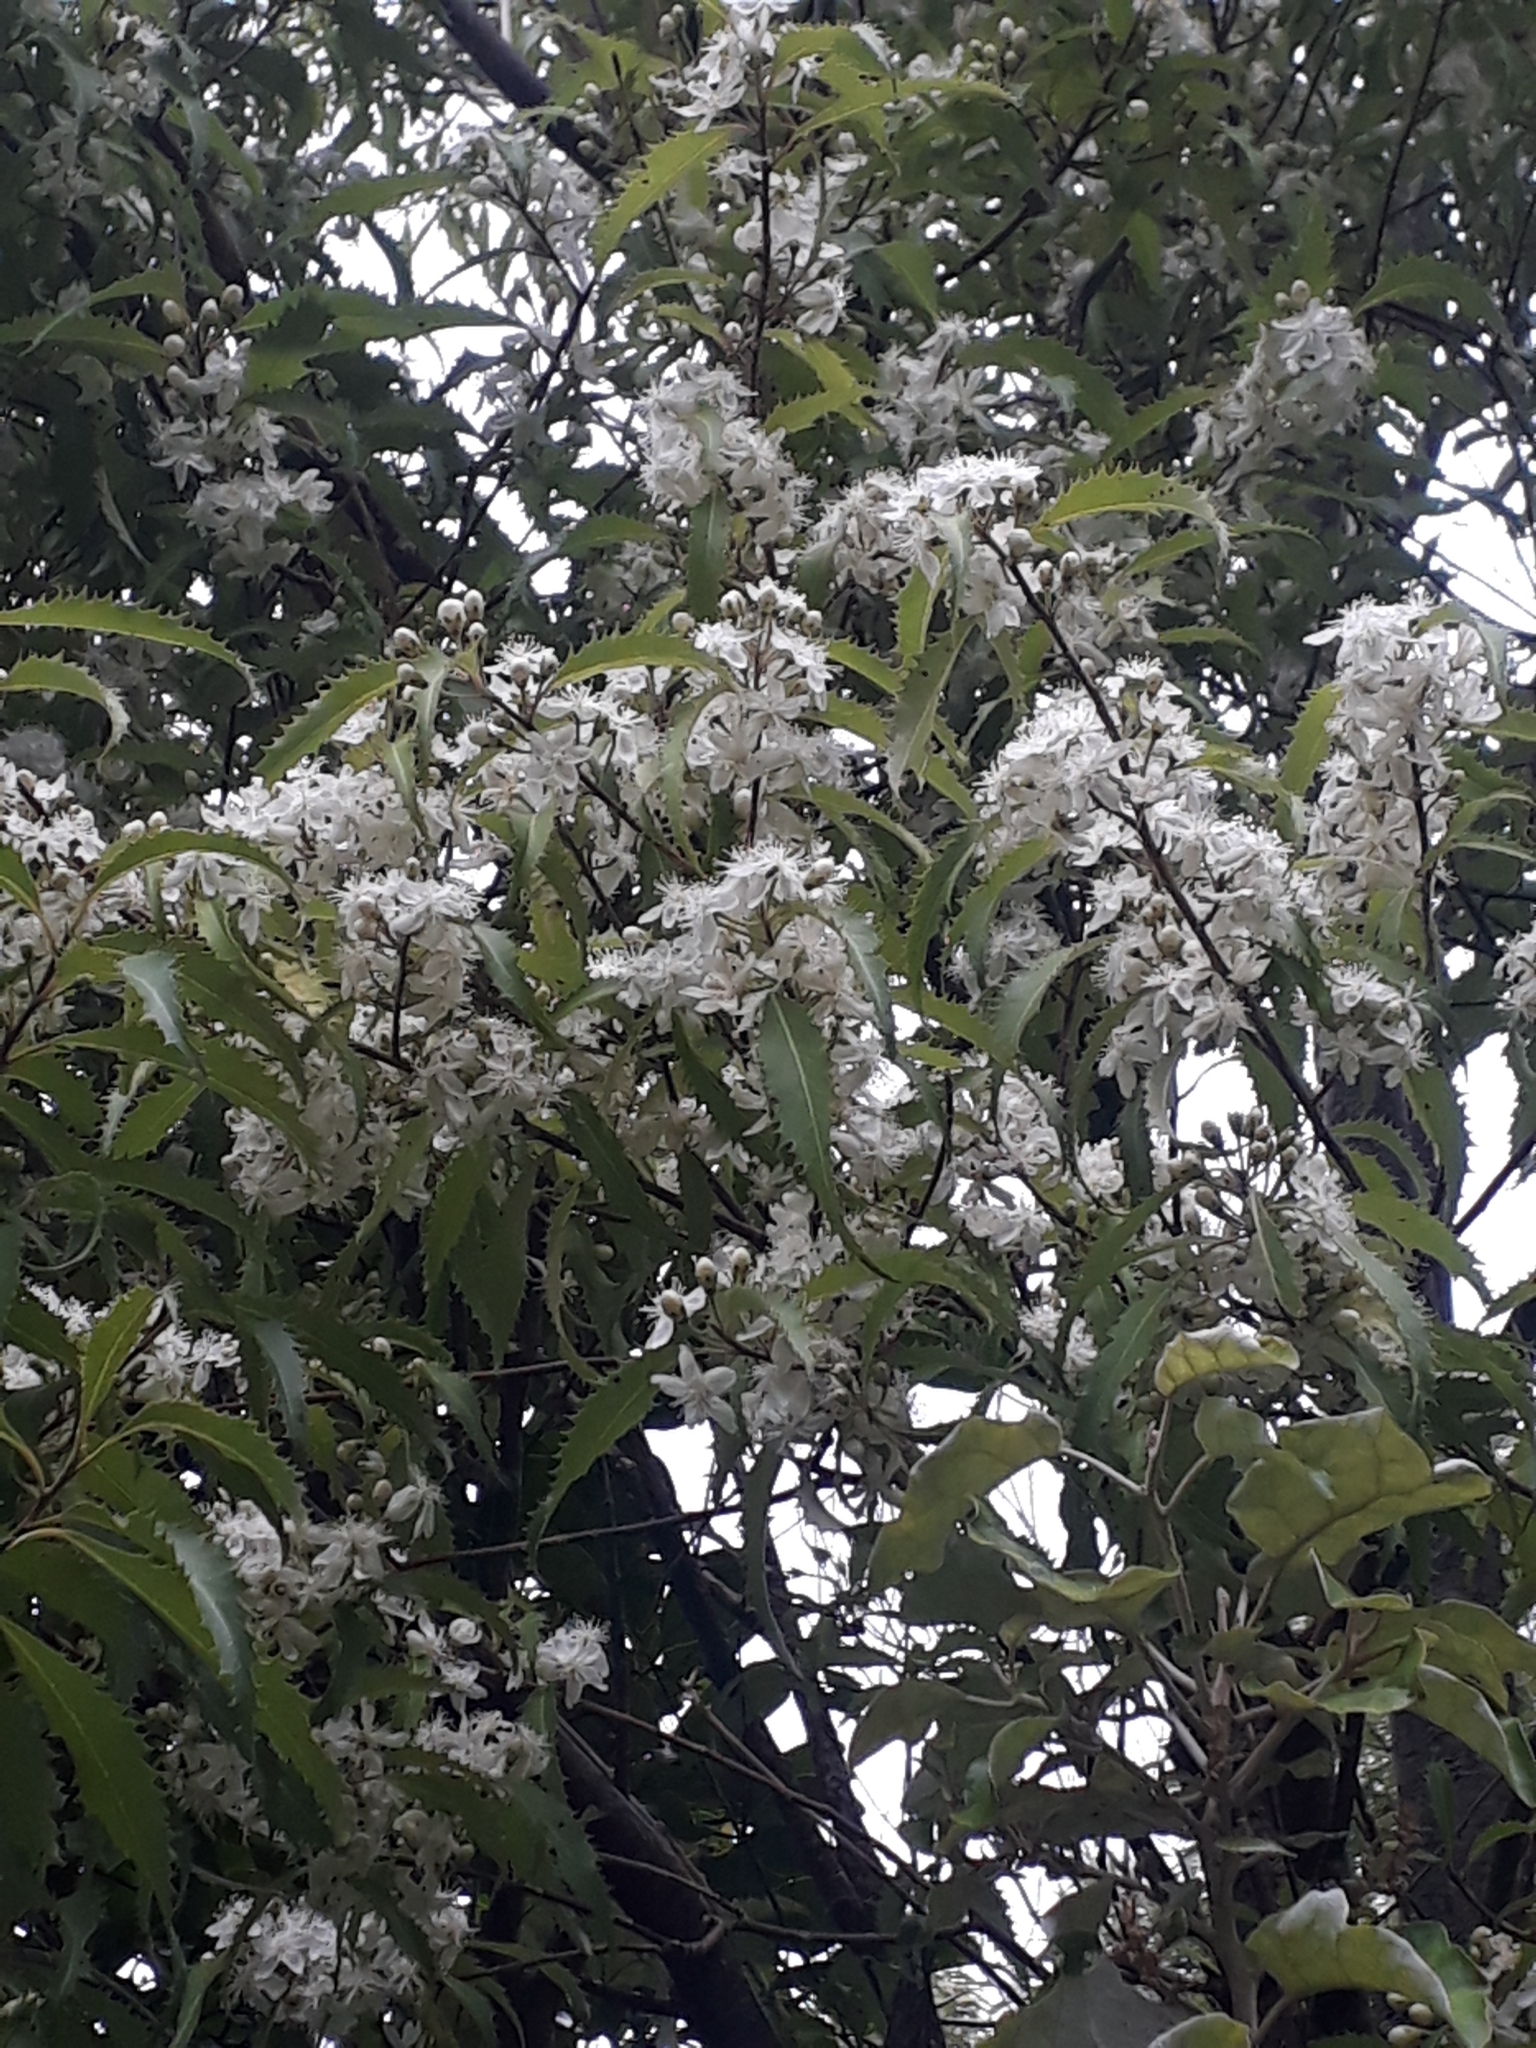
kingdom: Plantae
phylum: Tracheophyta
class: Magnoliopsida
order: Malvales
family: Malvaceae
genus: Hoheria
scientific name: Hoheria sexstylosa
